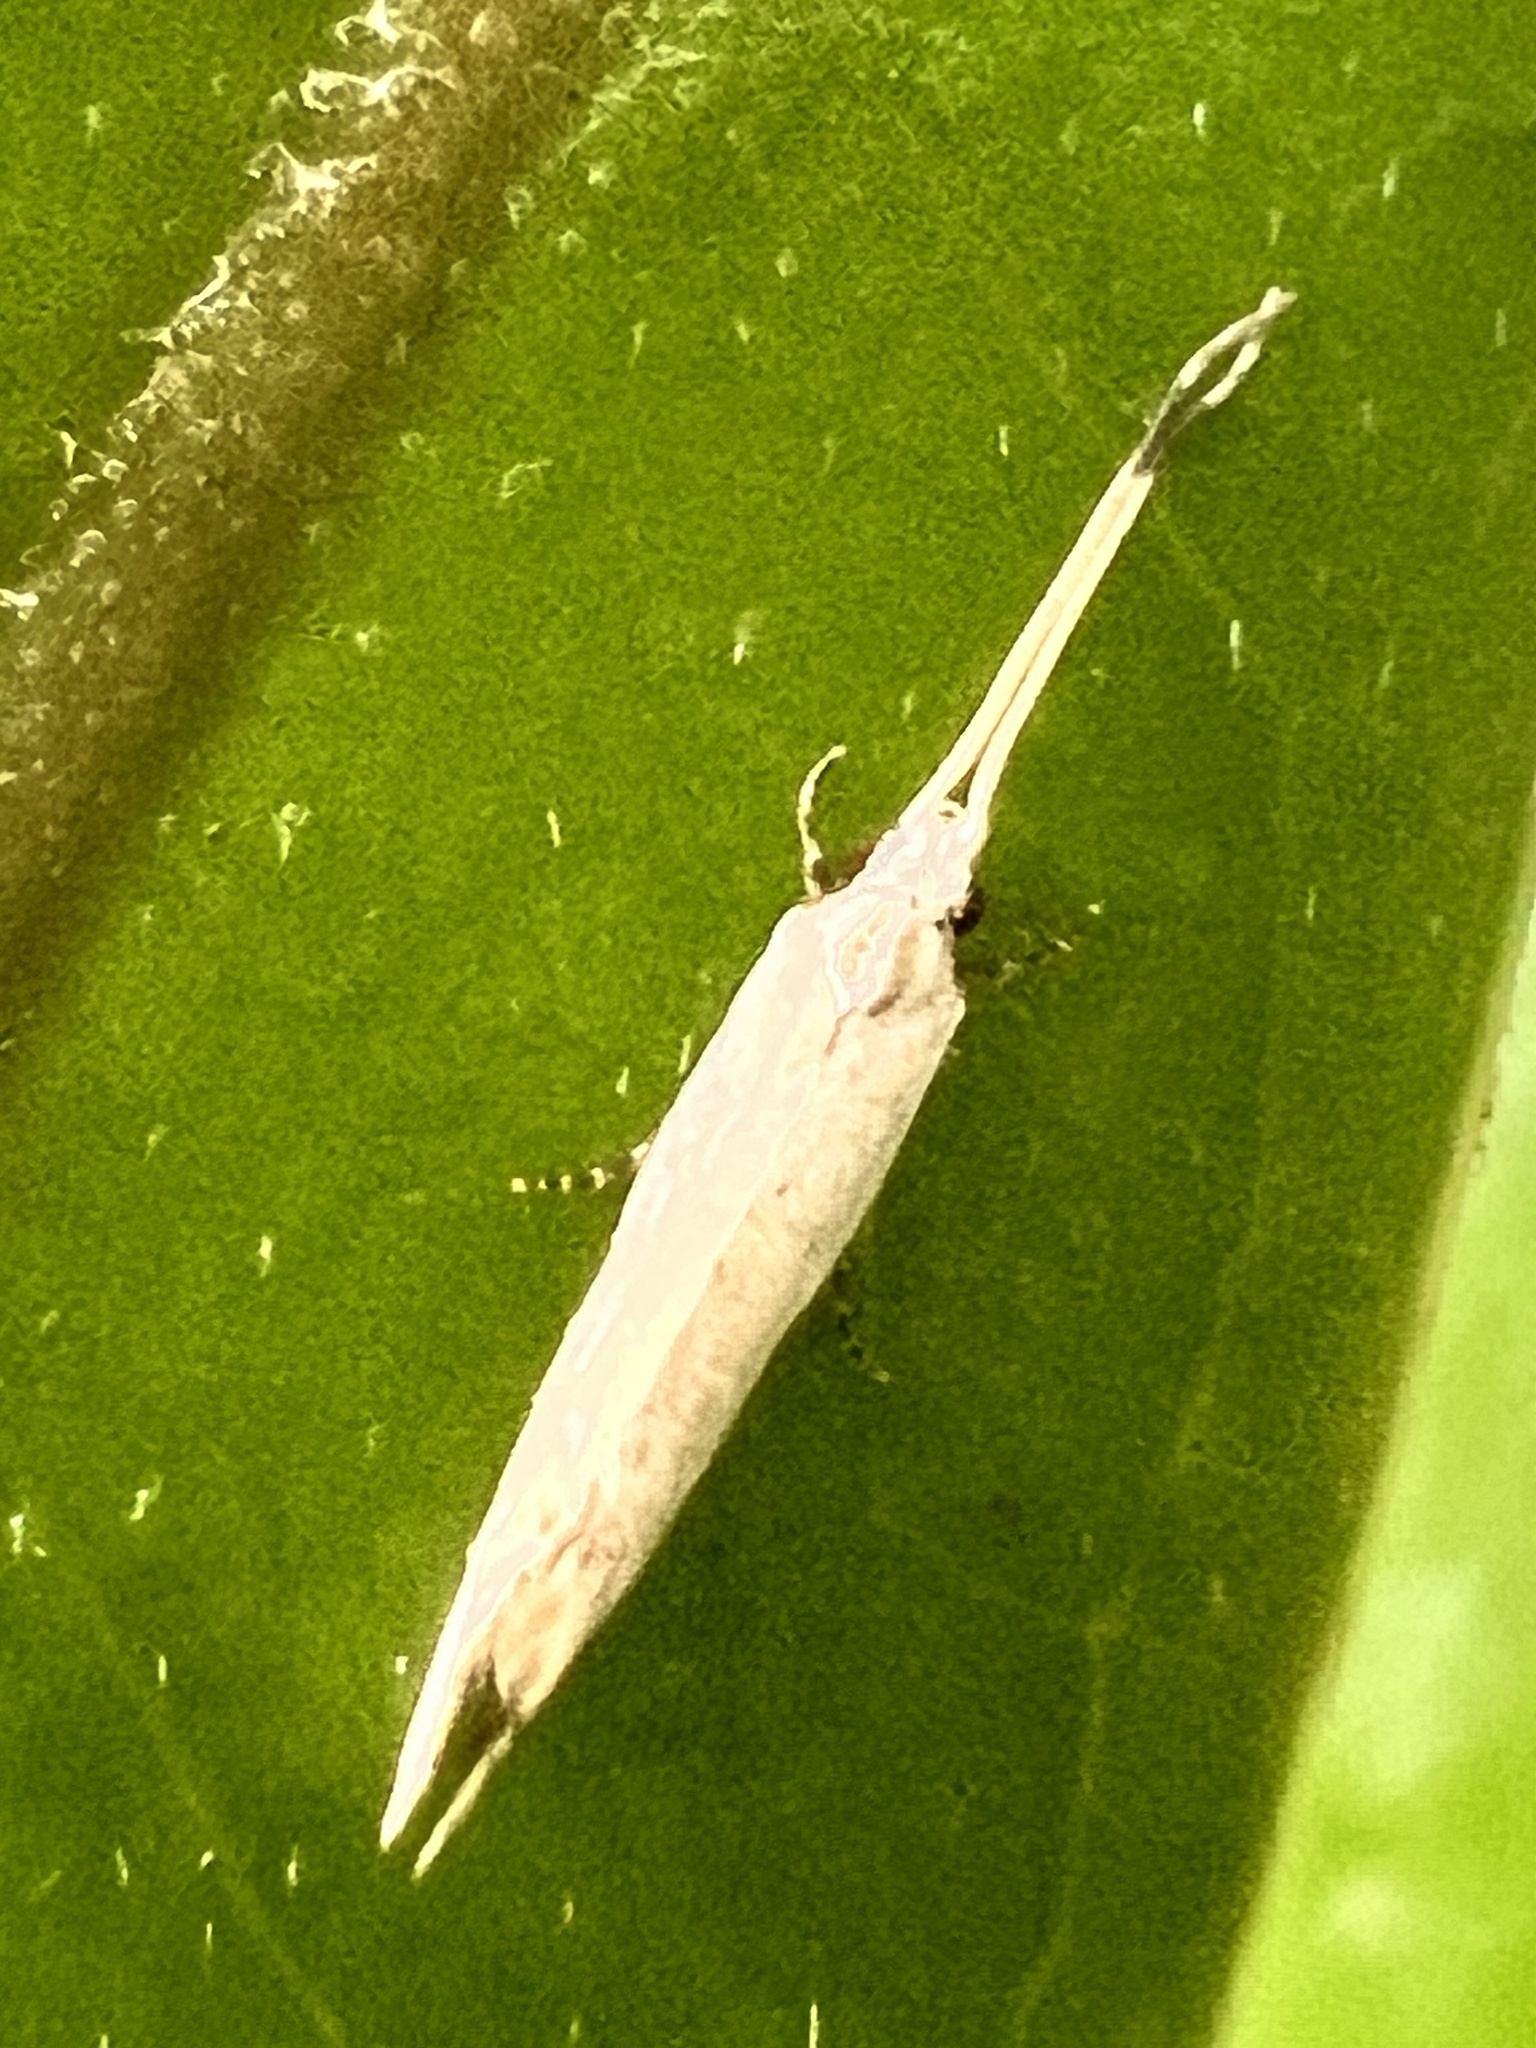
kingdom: Animalia
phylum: Arthropoda
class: Insecta
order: Lepidoptera
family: Tineidae
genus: Sagephora
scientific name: Sagephora phortegella
